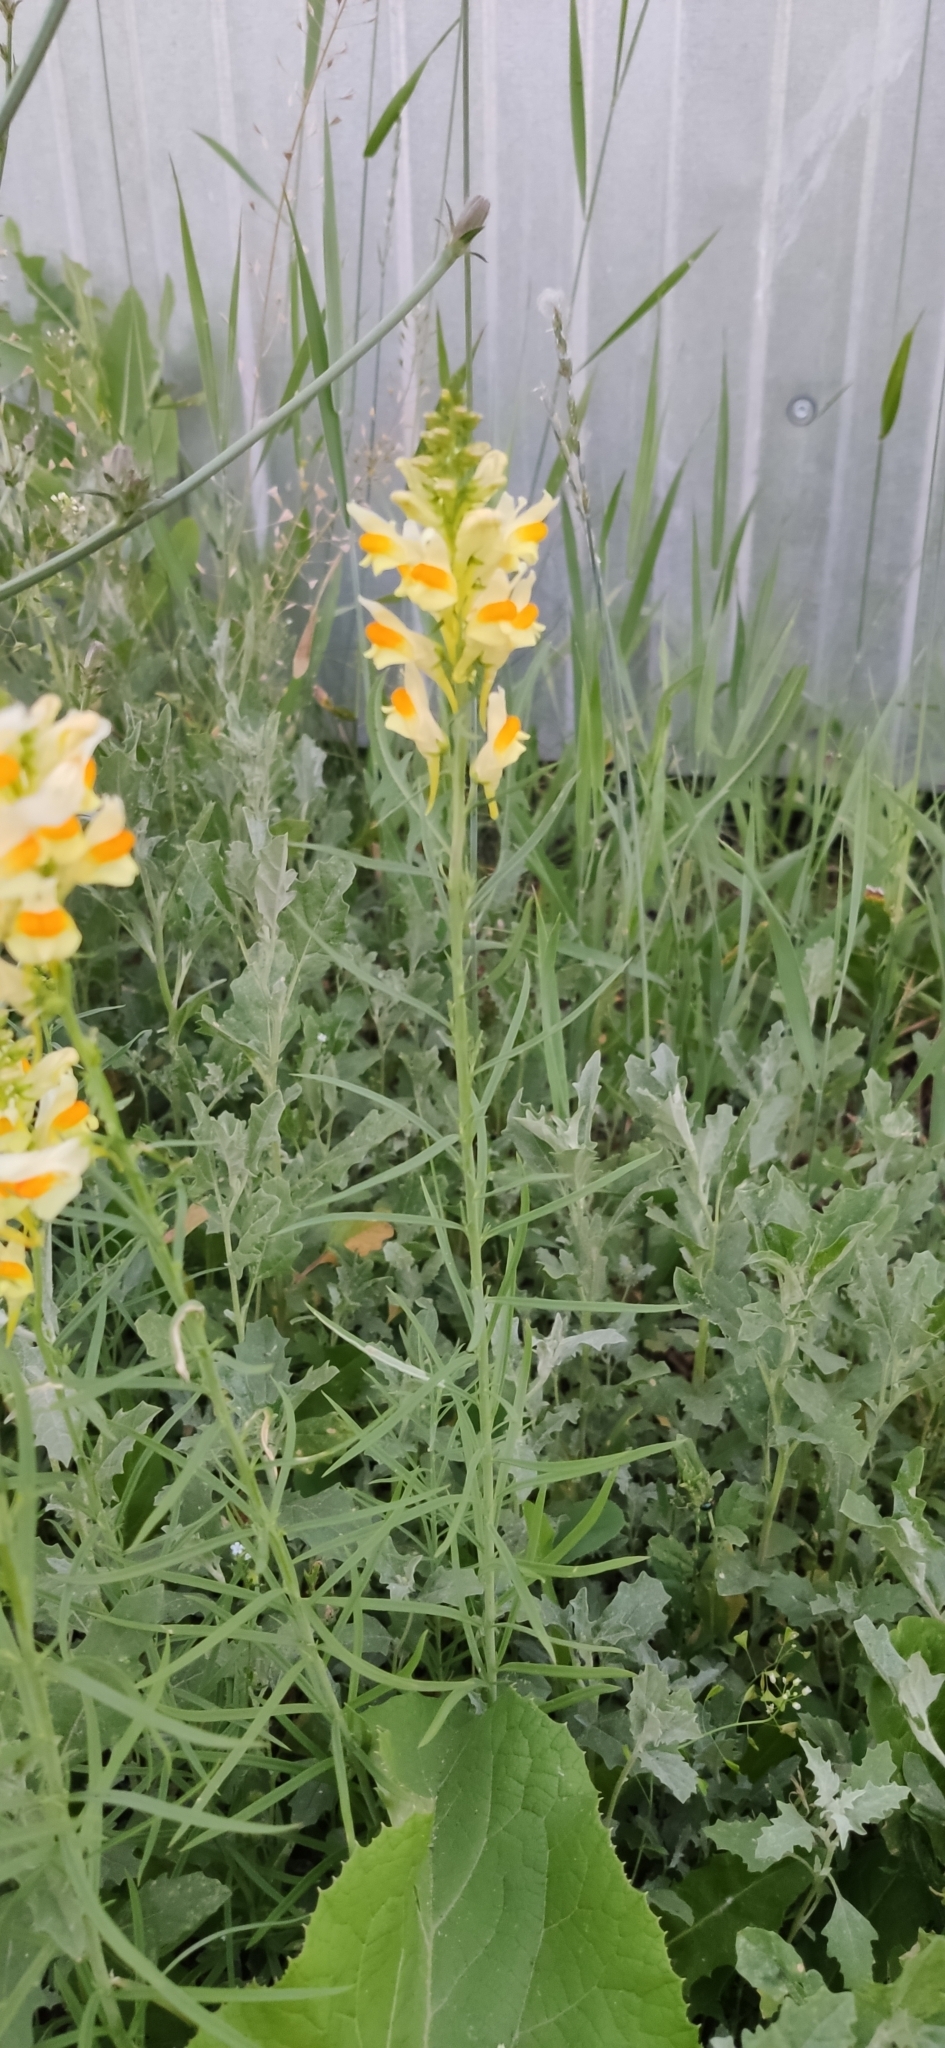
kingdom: Plantae
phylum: Tracheophyta
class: Magnoliopsida
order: Lamiales
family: Plantaginaceae
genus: Linaria
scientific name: Linaria vulgaris
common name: Butter and eggs
